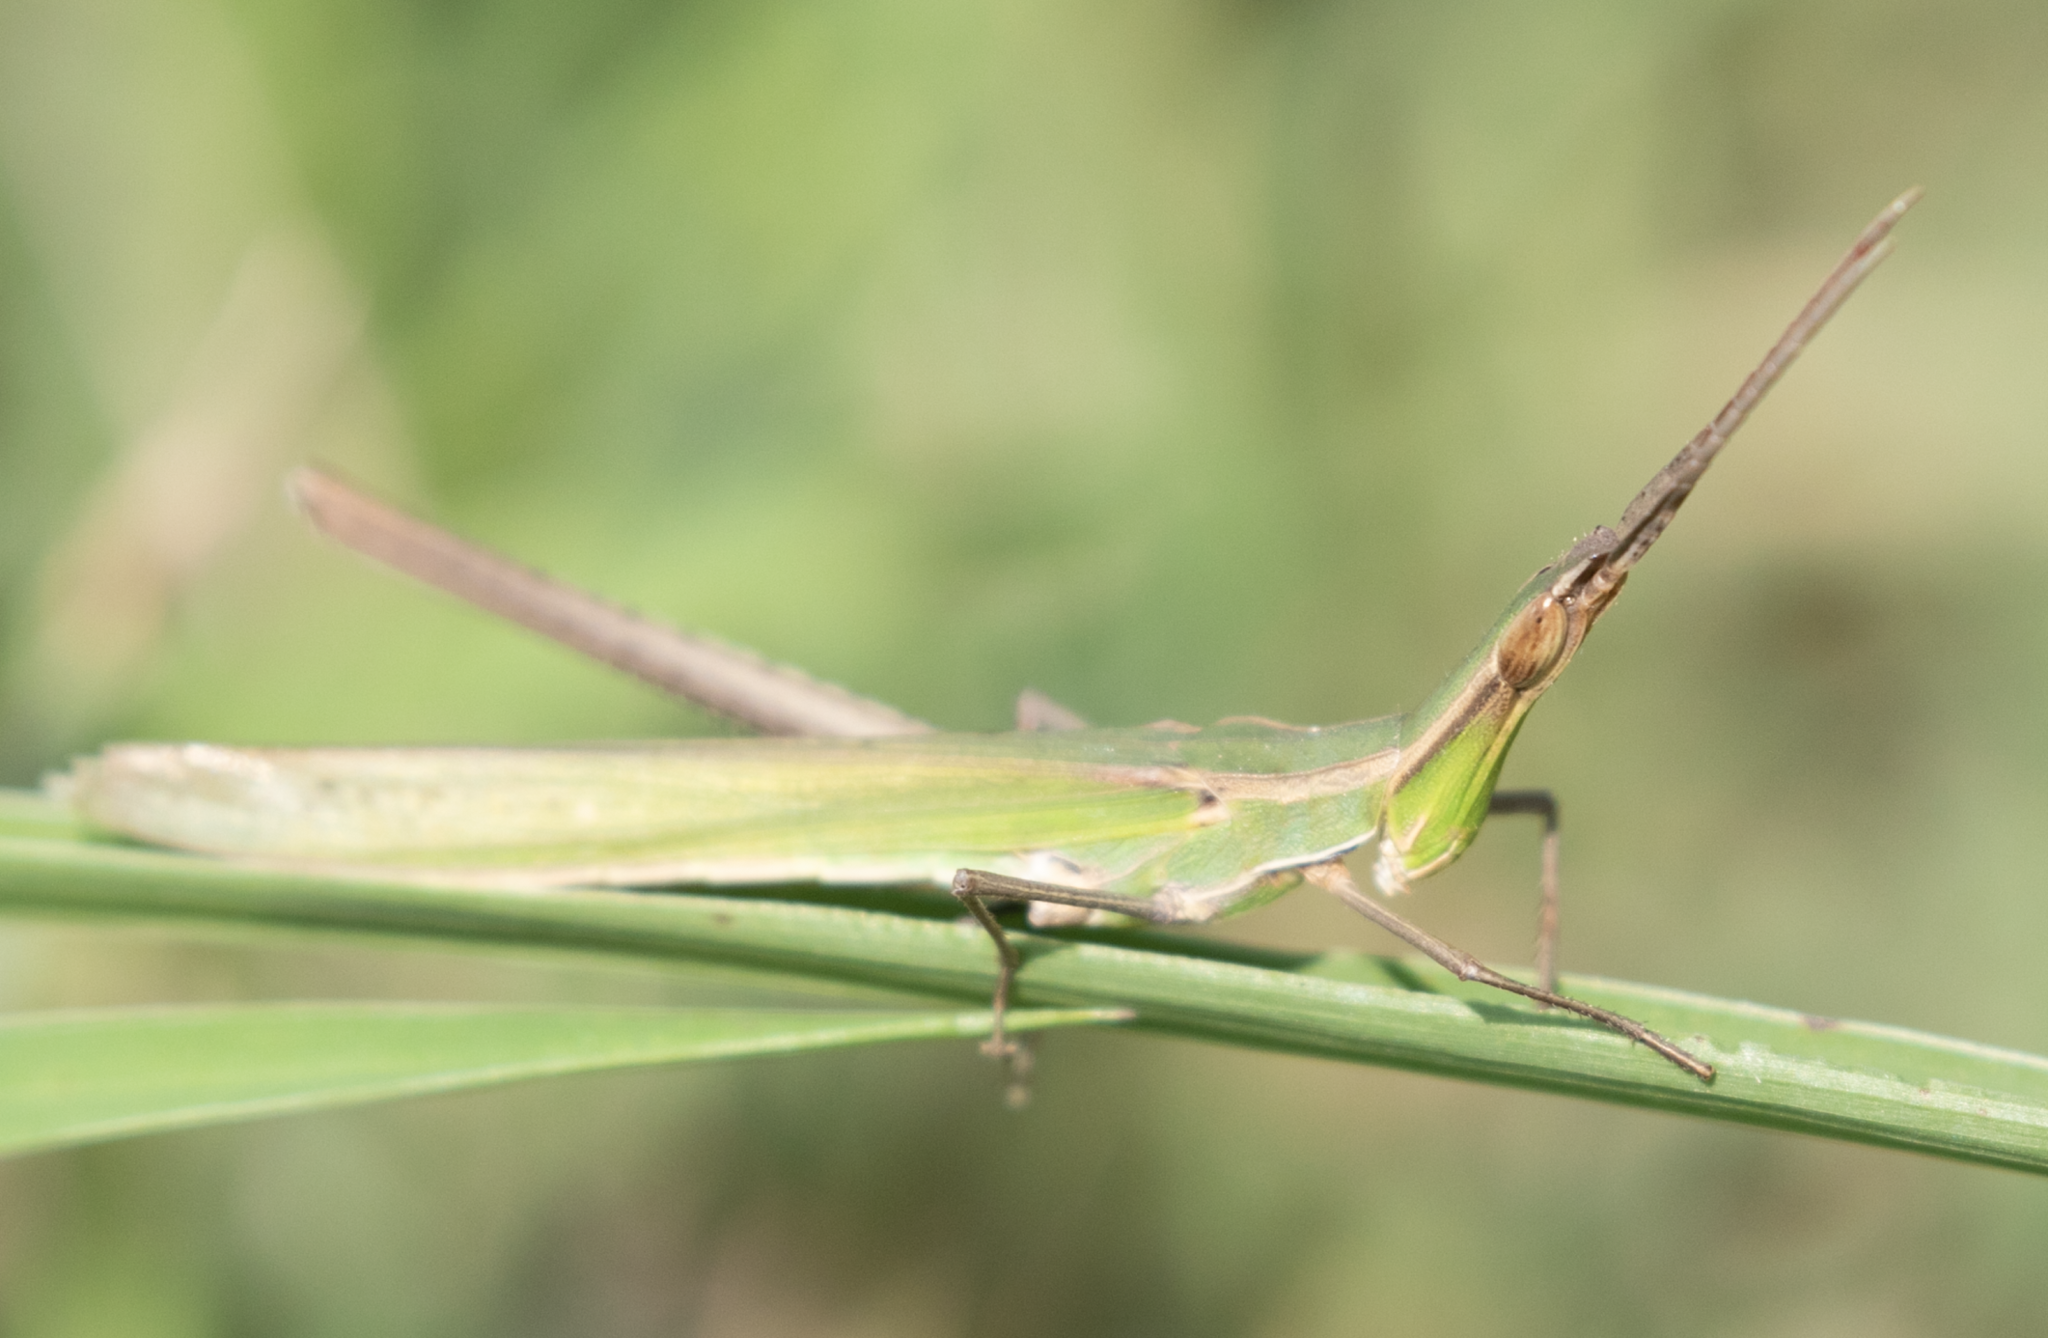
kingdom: Animalia
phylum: Arthropoda
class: Insecta
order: Orthoptera
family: Acrididae
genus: Acrida
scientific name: Acrida ungarica
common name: Common cone-headed grasshopper
